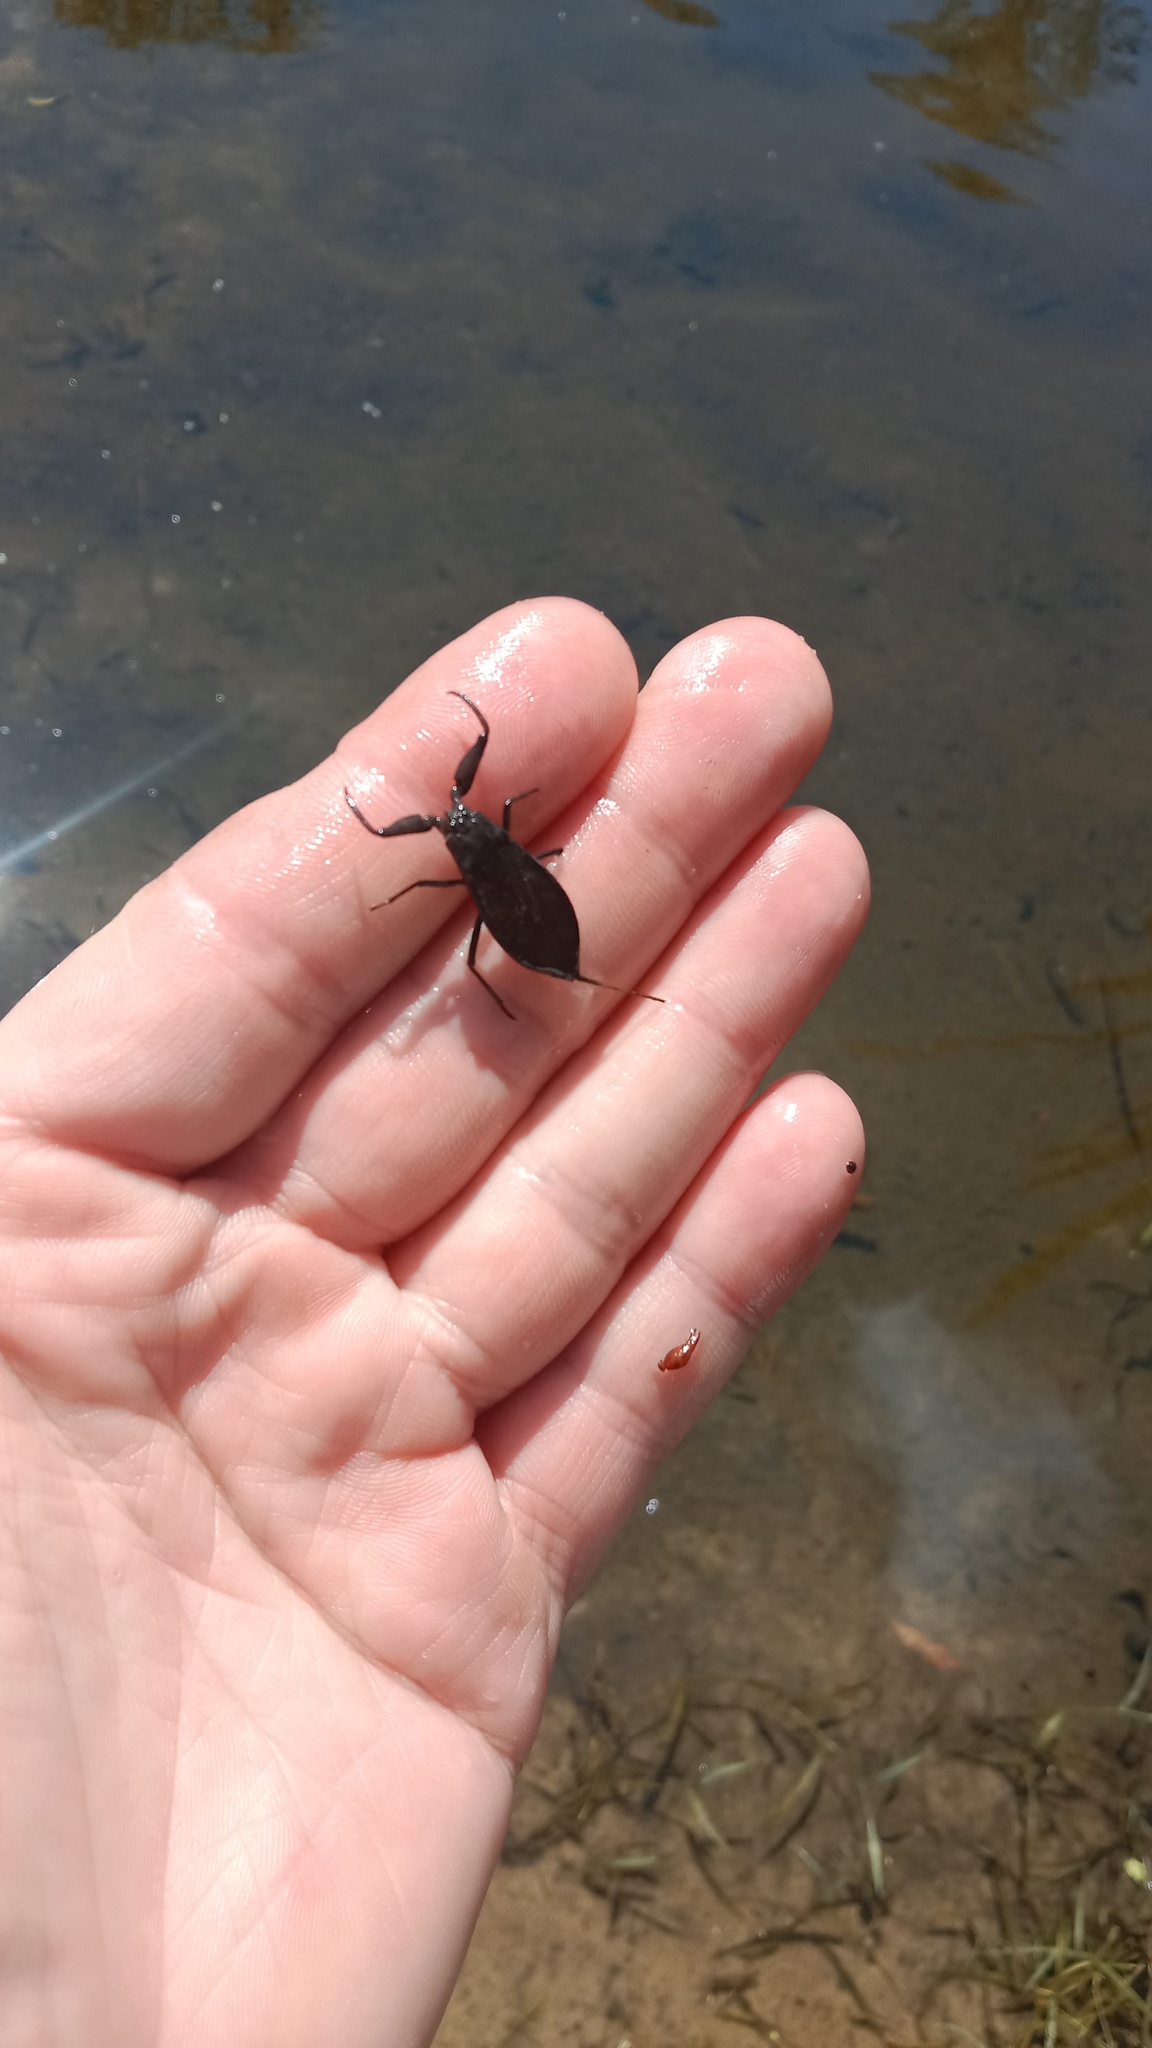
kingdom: Animalia
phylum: Arthropoda
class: Insecta
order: Hemiptera
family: Nepidae
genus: Nepa
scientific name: Nepa cinerea
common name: Water scorpion
